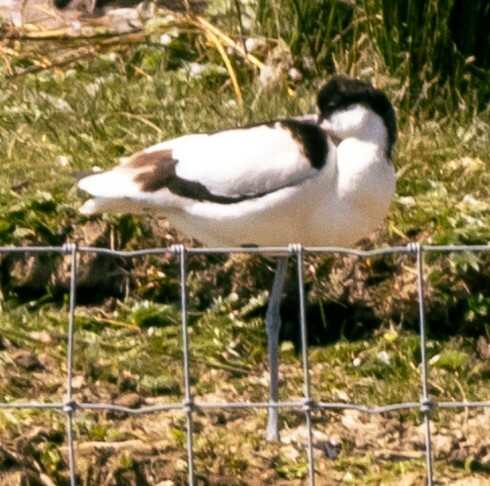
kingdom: Animalia
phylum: Chordata
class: Aves
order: Charadriiformes
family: Recurvirostridae
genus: Recurvirostra
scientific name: Recurvirostra avosetta
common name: Pied avocet
